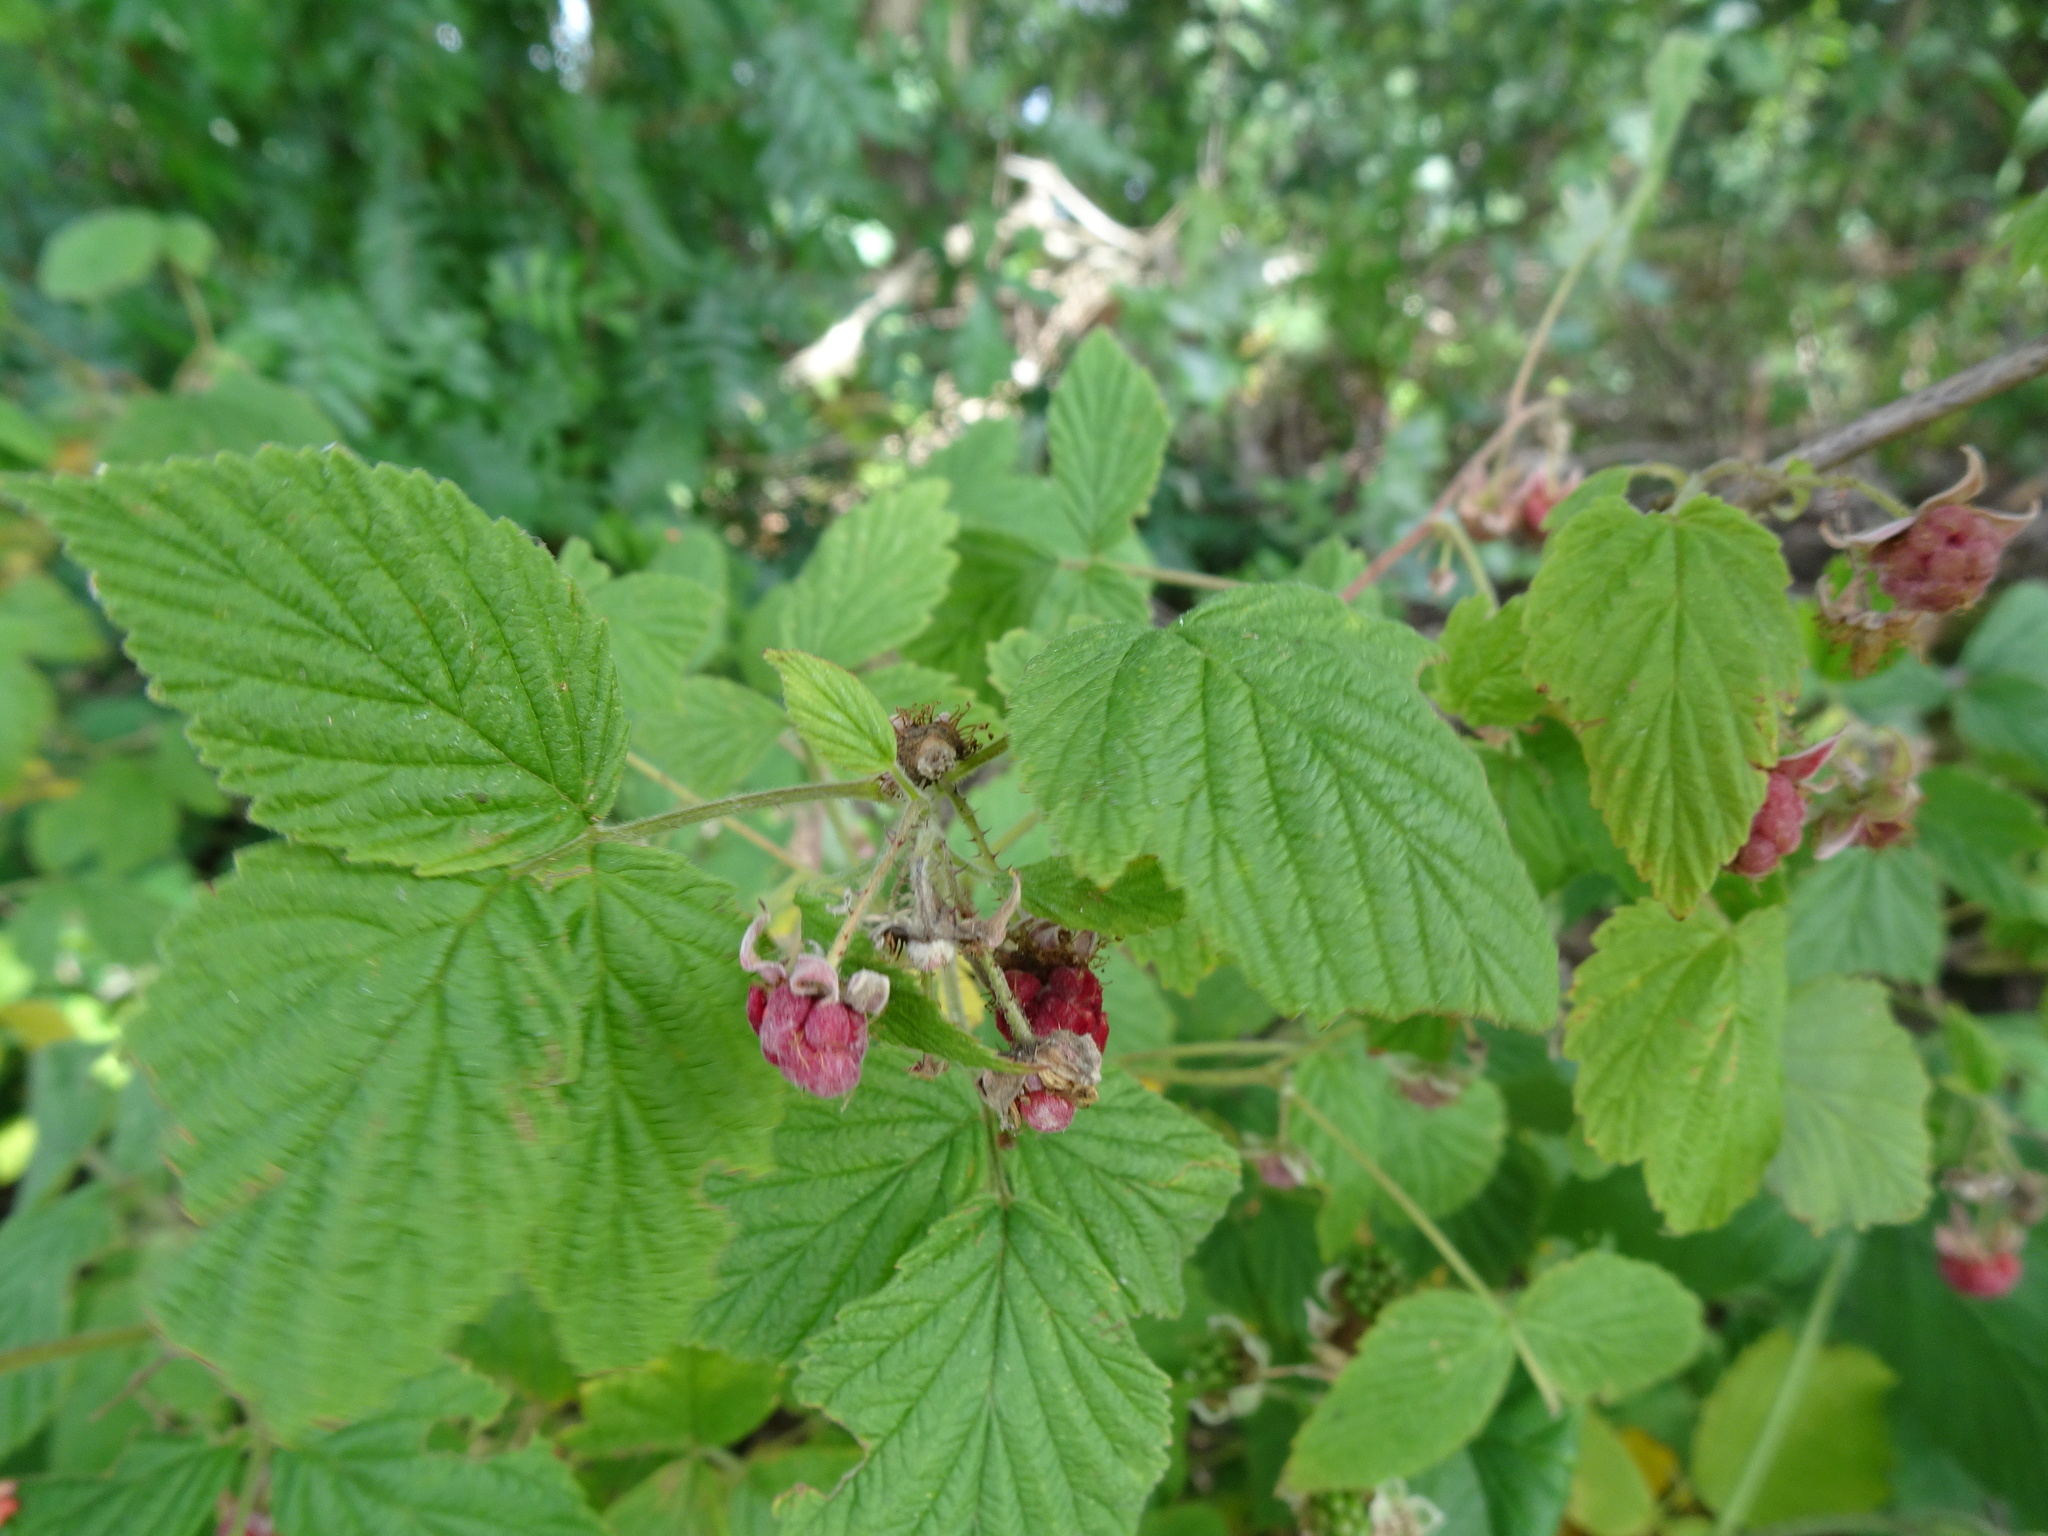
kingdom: Plantae
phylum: Tracheophyta
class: Magnoliopsida
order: Rosales
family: Rosaceae
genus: Rubus
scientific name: Rubus idaeus
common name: Raspberry
